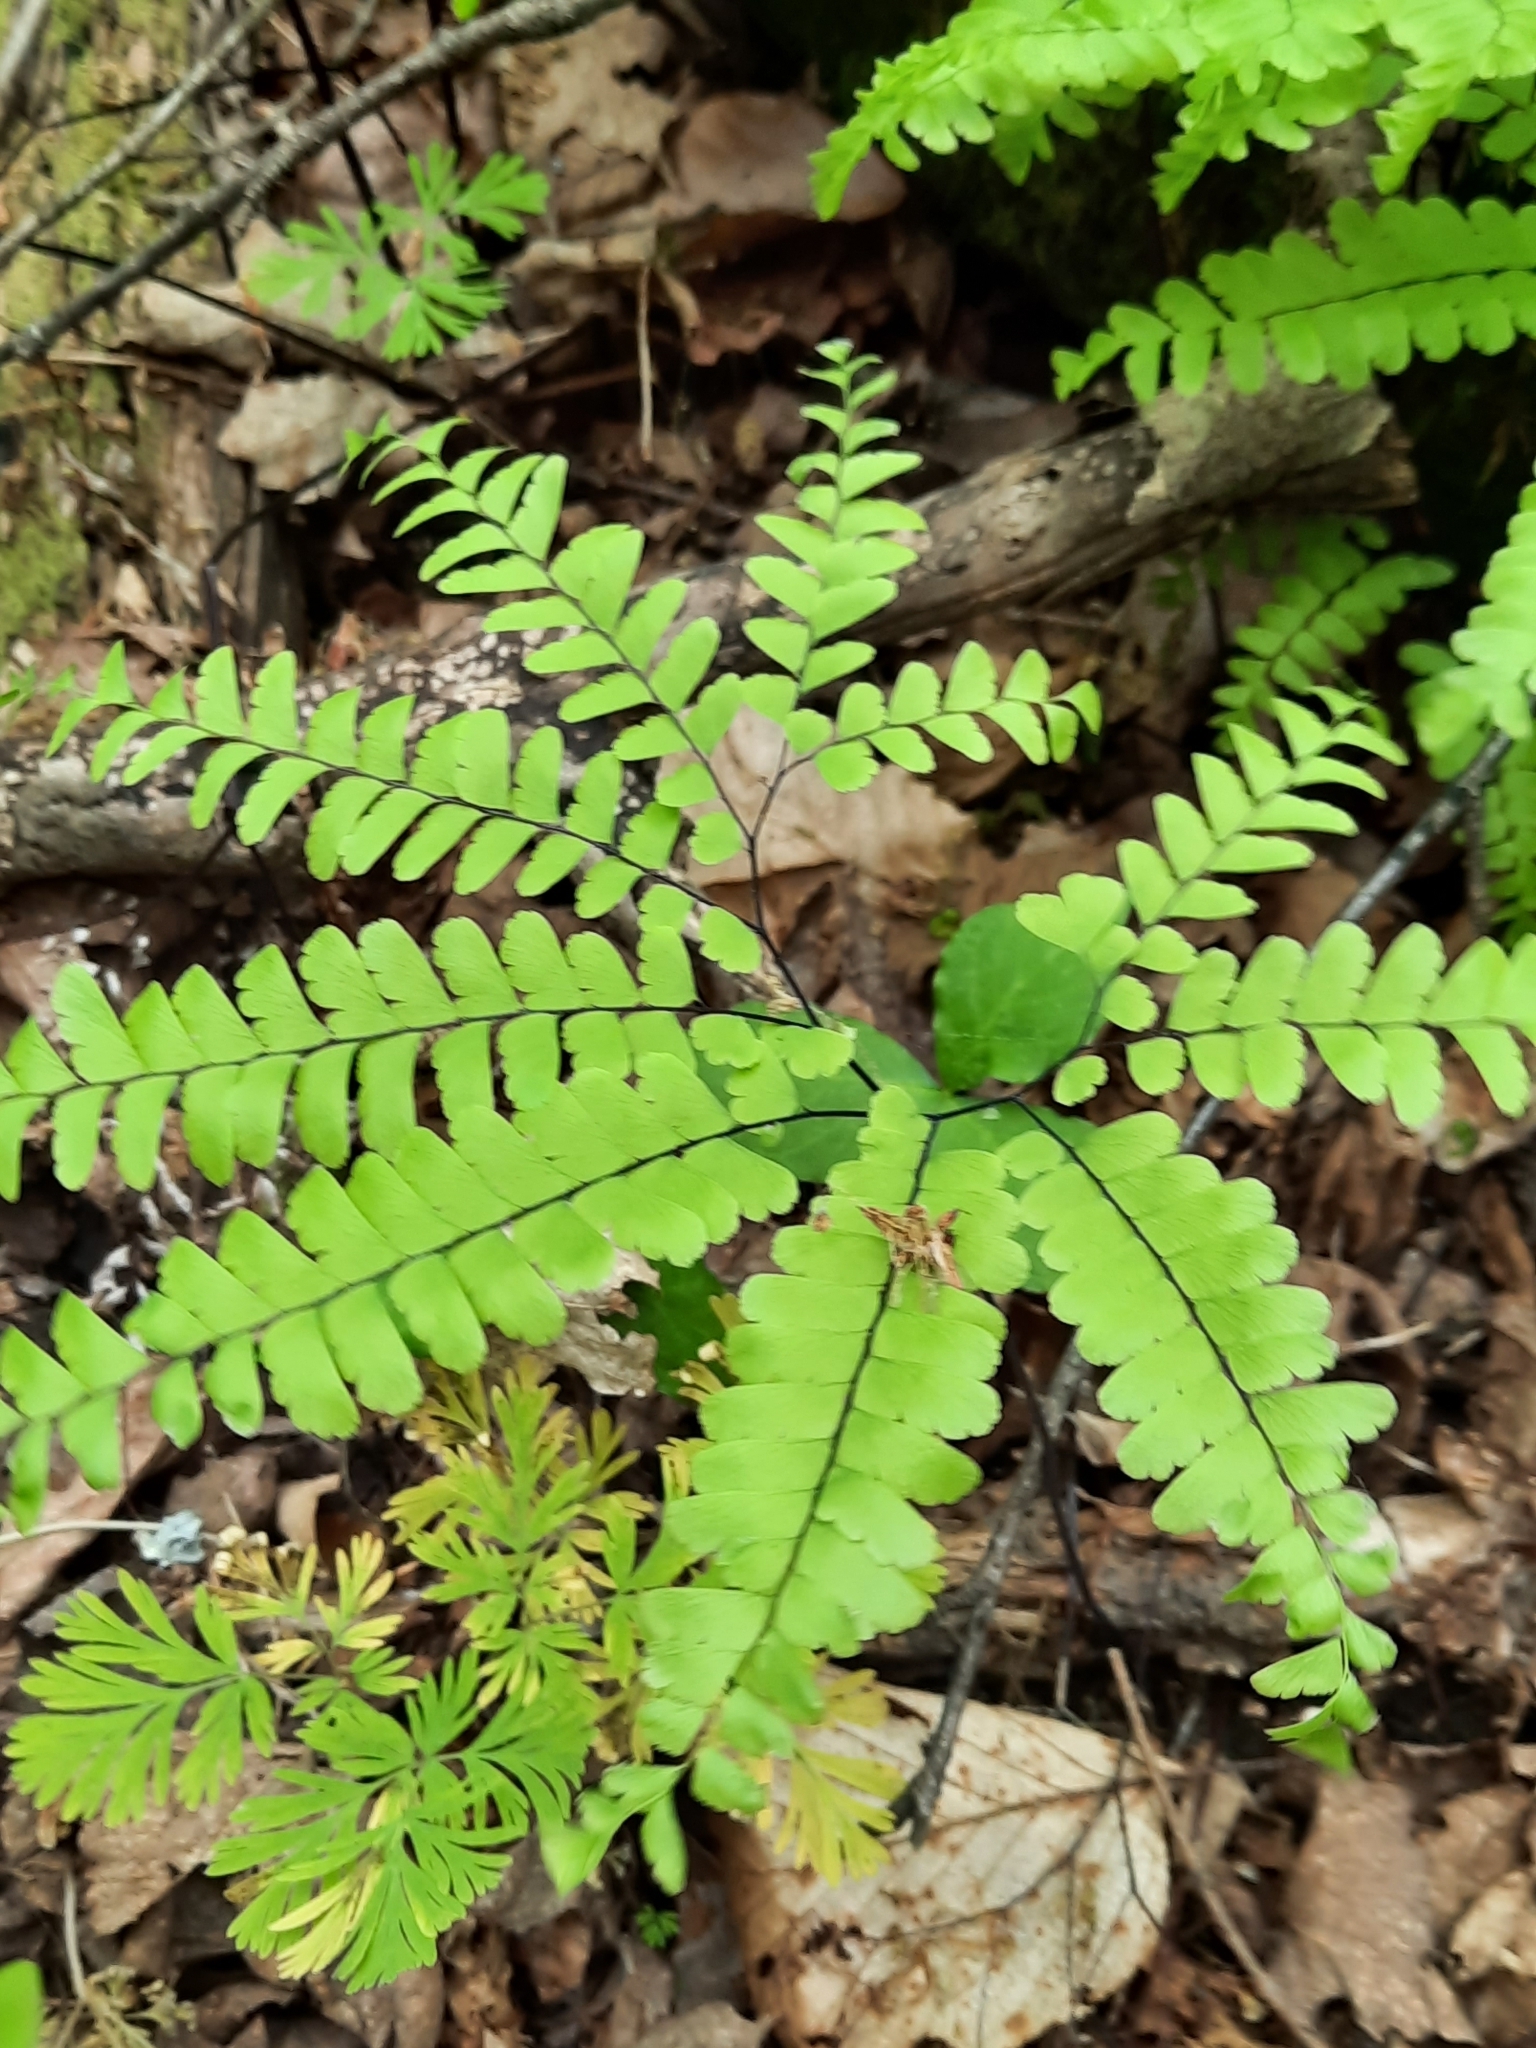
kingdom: Plantae
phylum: Tracheophyta
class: Polypodiopsida
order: Polypodiales
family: Pteridaceae
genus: Adiantum
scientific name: Adiantum pedatum
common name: Five-finger fern
